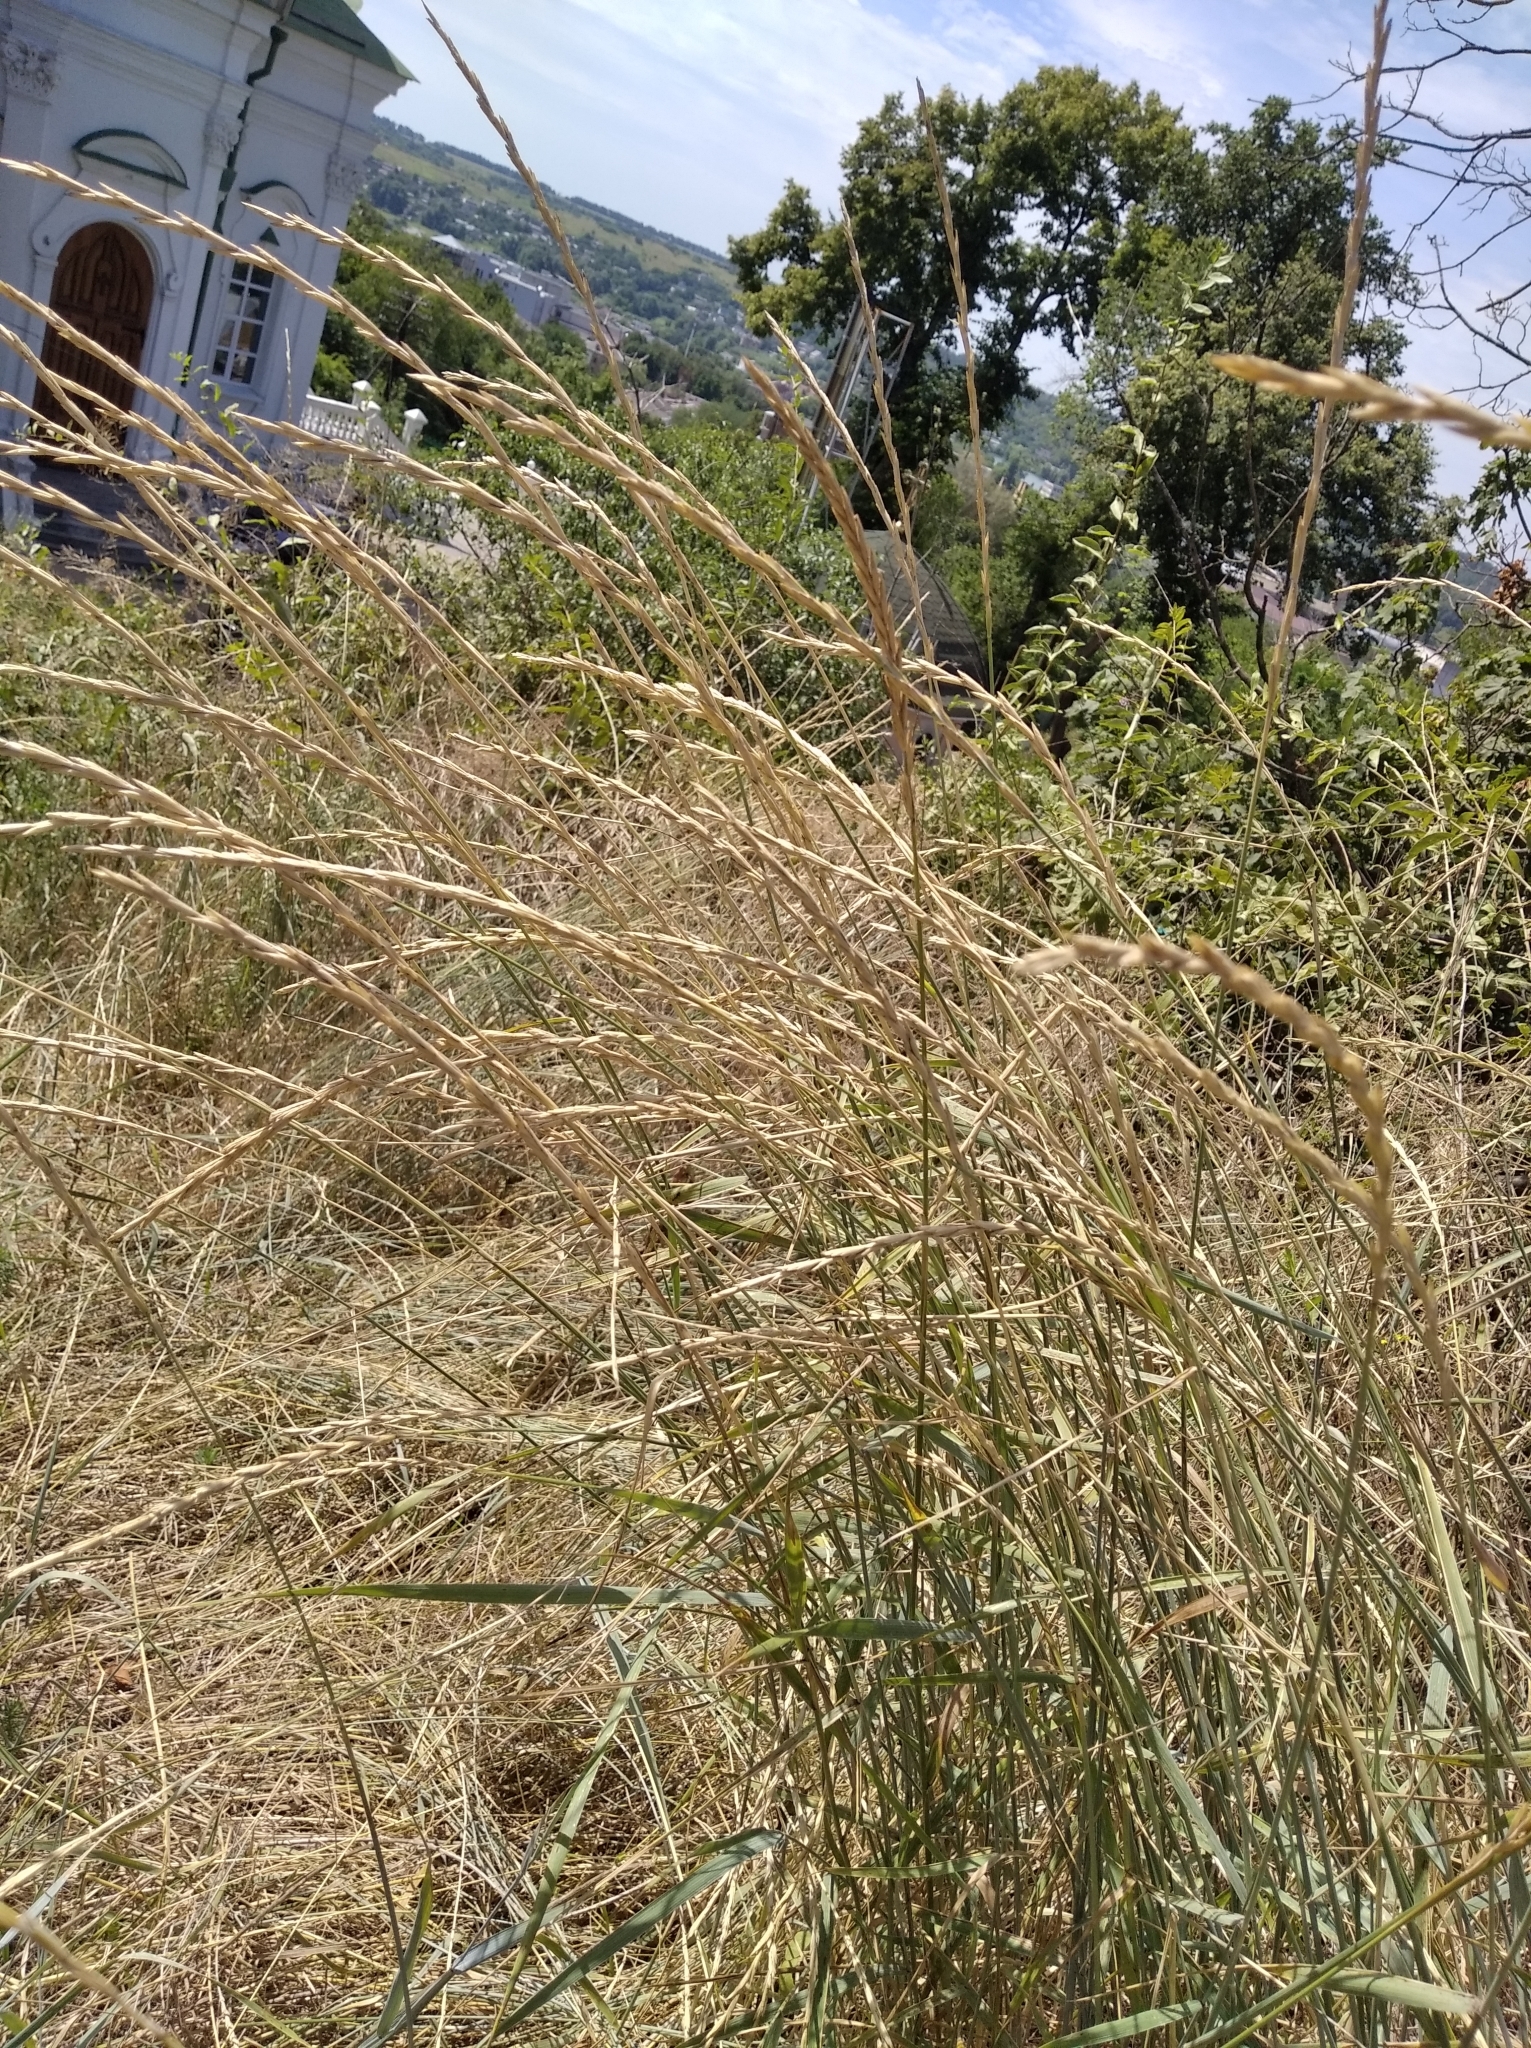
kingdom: Plantae
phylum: Tracheophyta
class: Liliopsida
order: Poales
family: Poaceae
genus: Elymus
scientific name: Elymus repens
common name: Quackgrass
